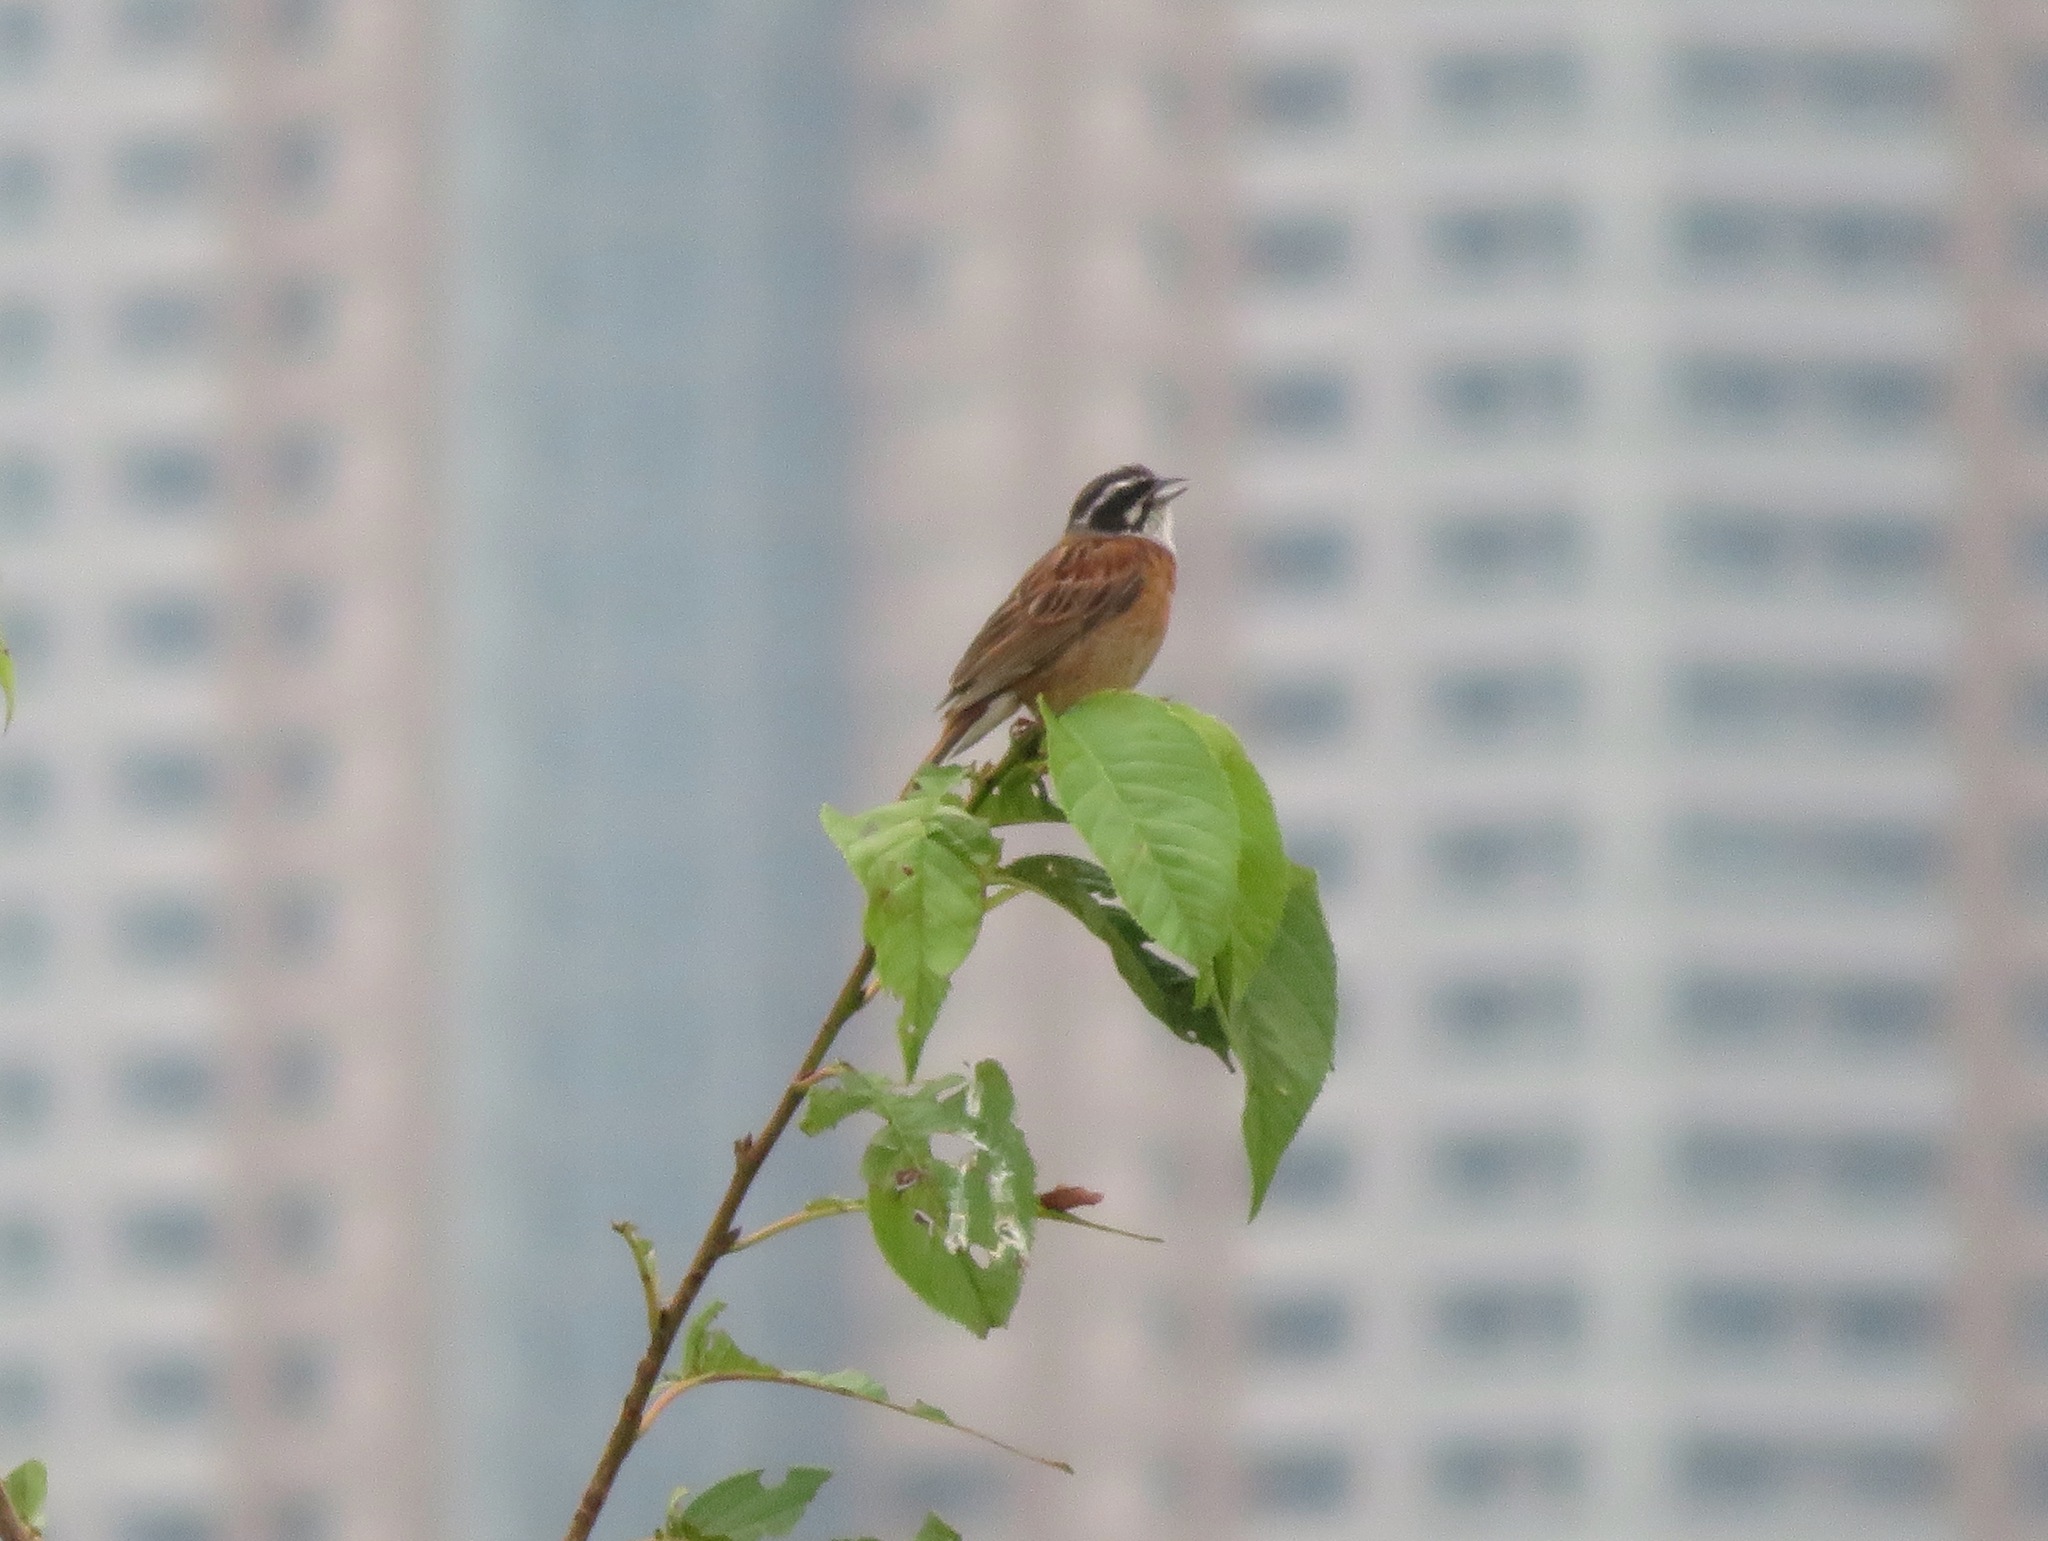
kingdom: Animalia
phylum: Chordata
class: Aves
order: Passeriformes
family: Emberizidae
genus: Emberiza
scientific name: Emberiza cioides
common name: Meadow bunting
